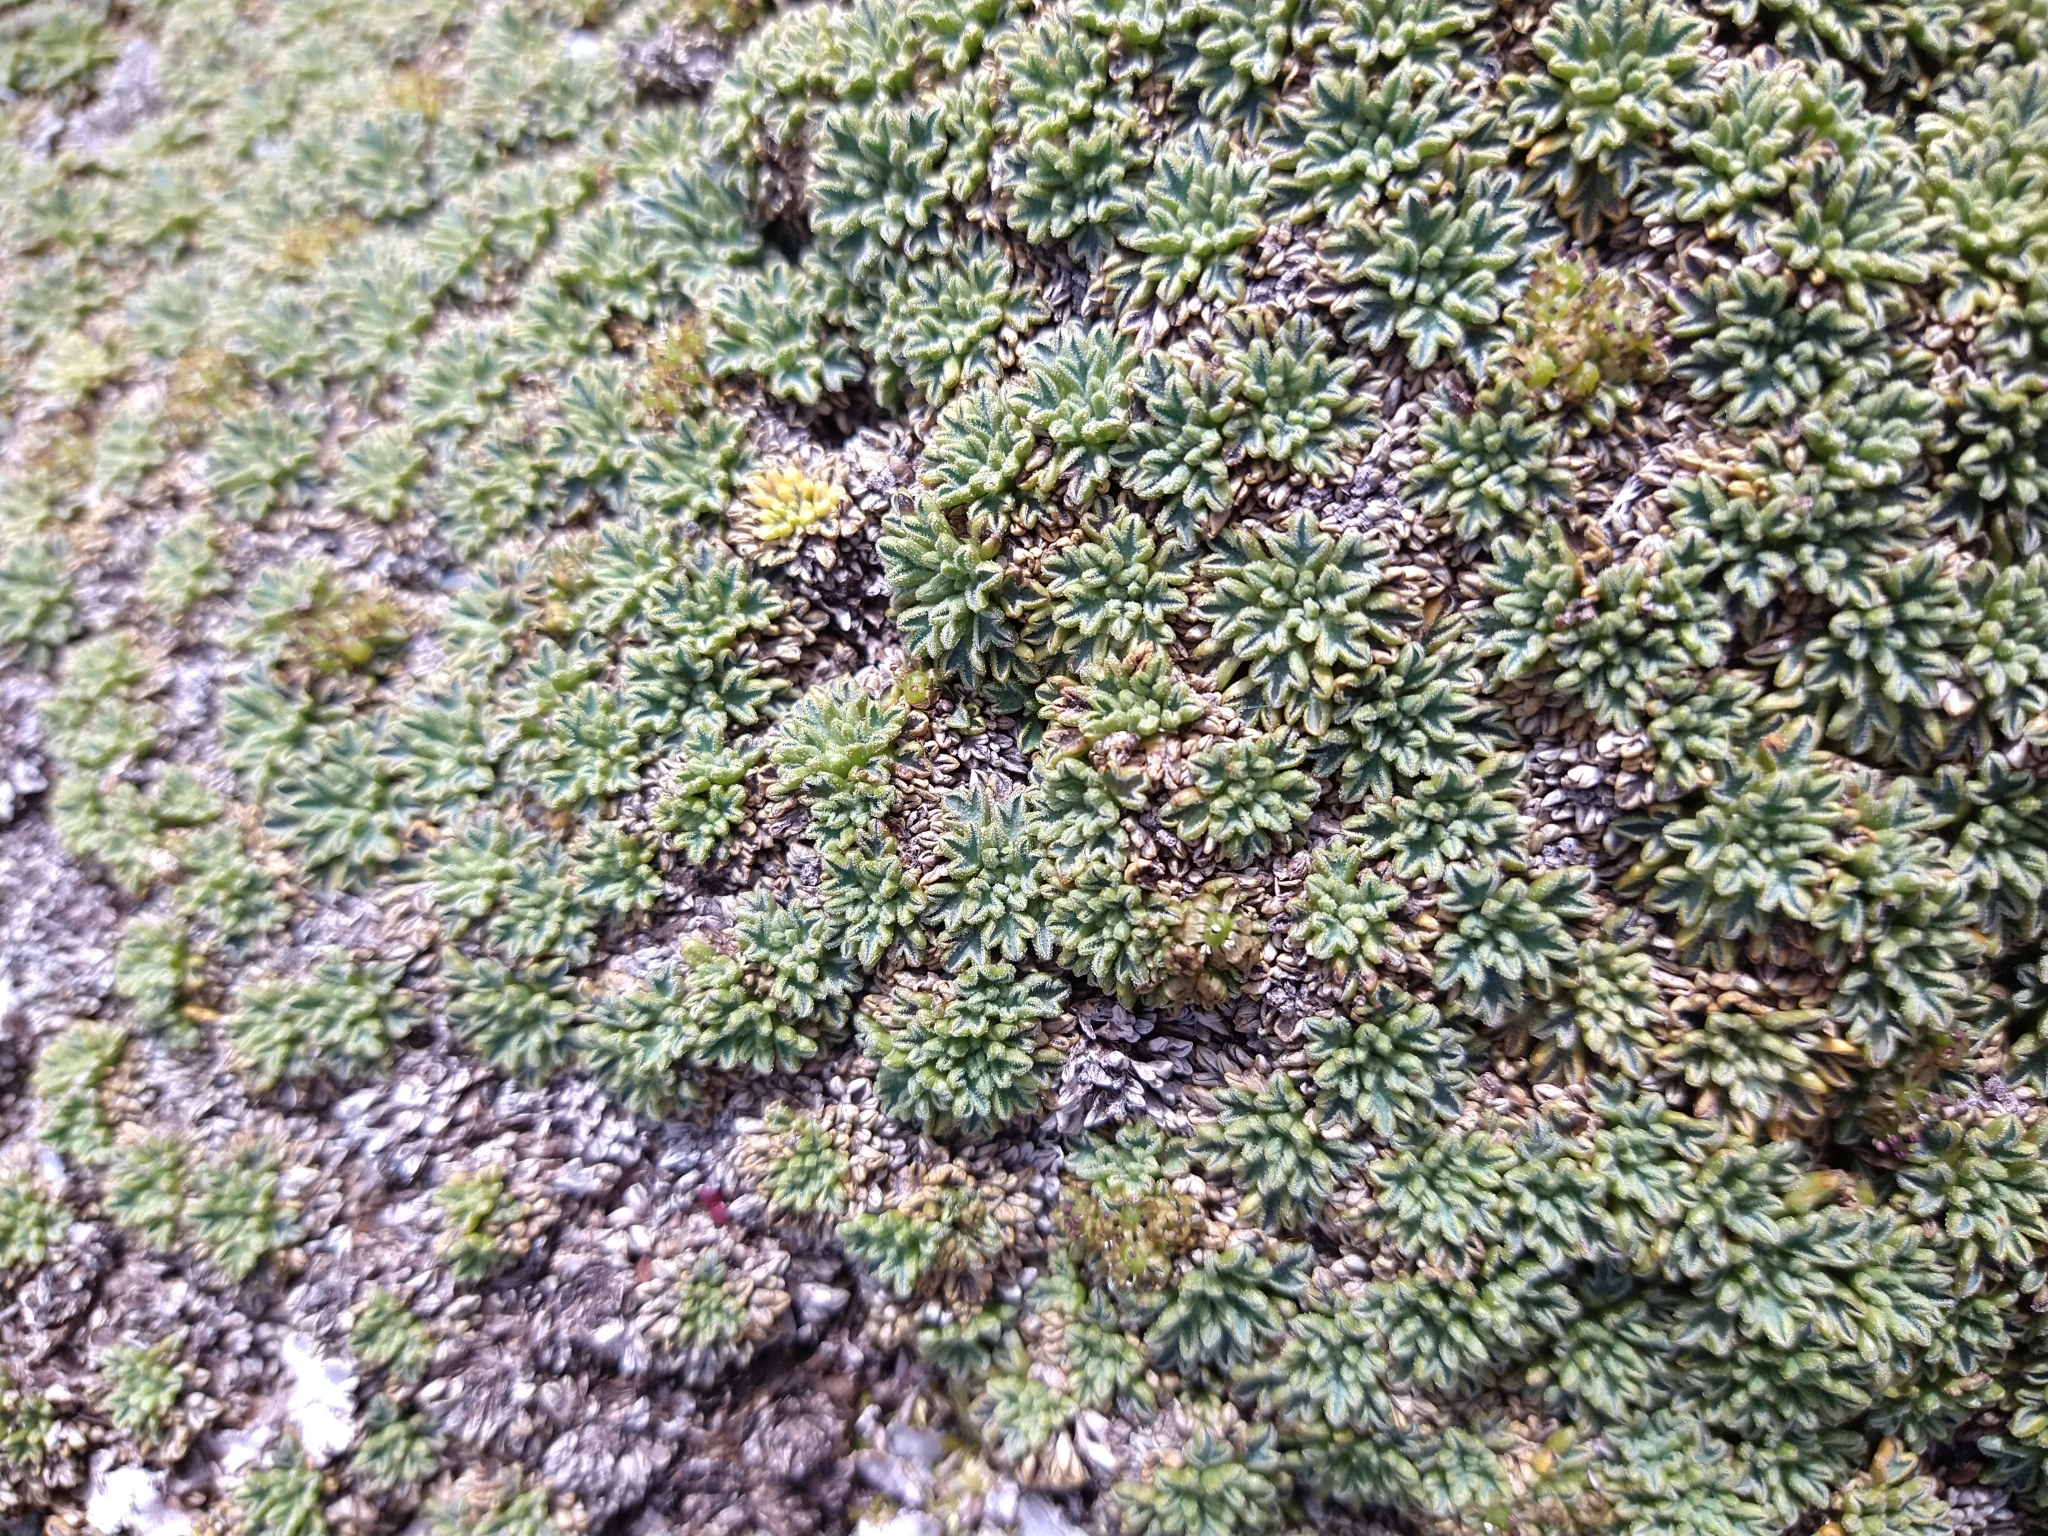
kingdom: Plantae
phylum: Tracheophyta
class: Magnoliopsida
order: Apiales
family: Apiaceae
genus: Bolax
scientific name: Bolax gummifera
